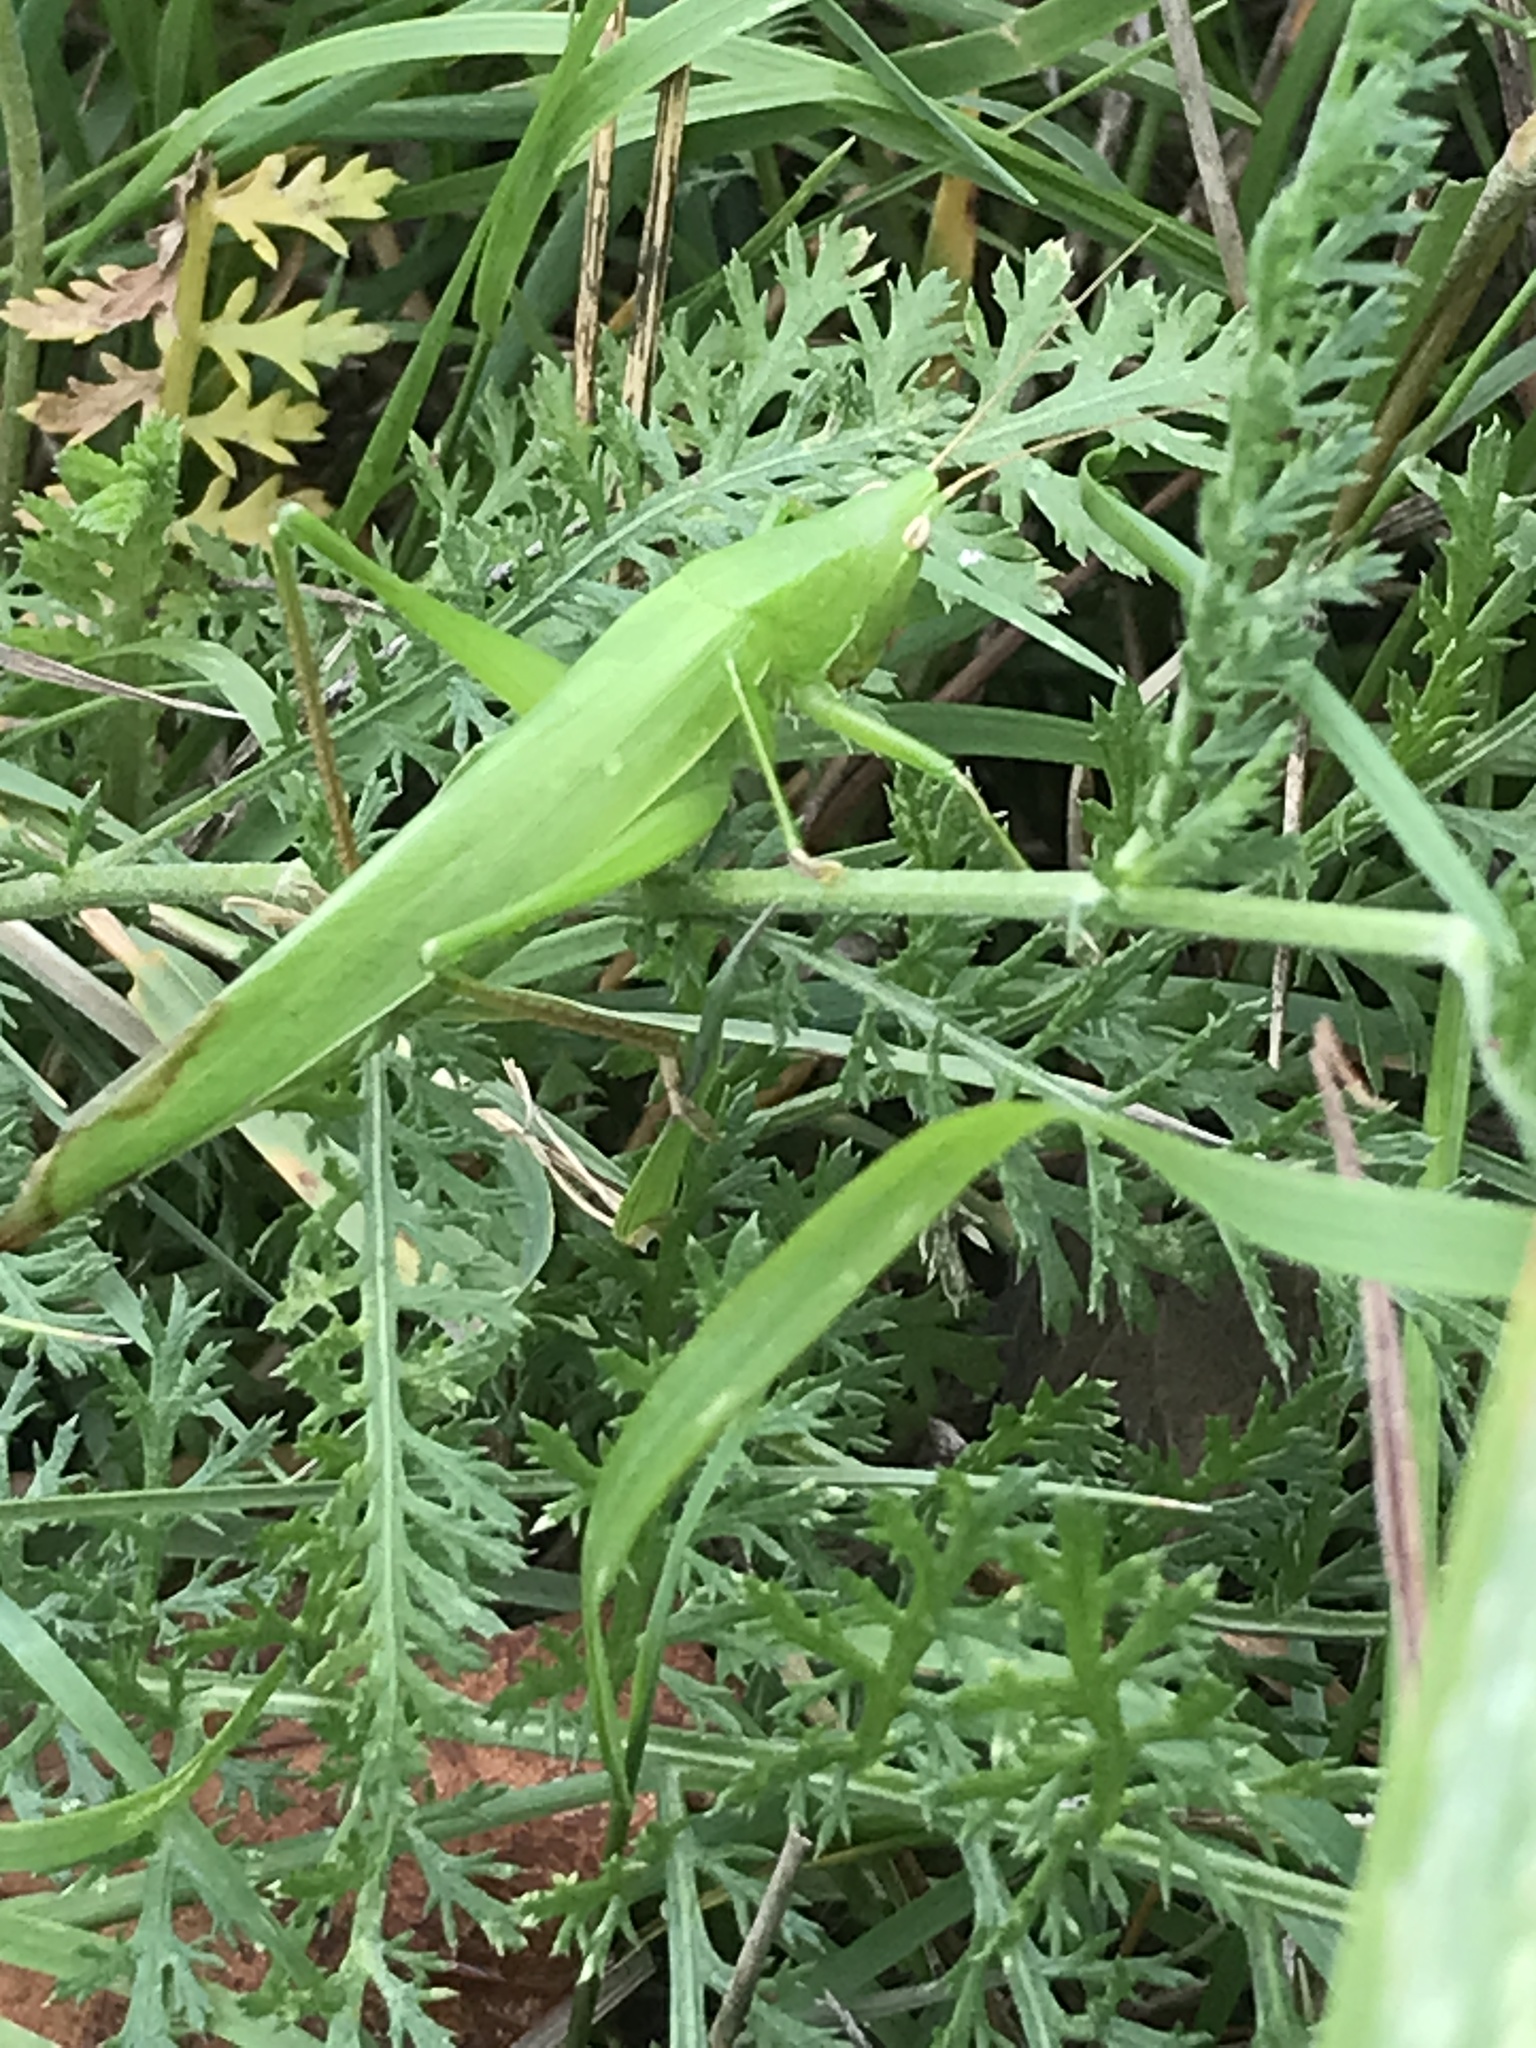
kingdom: Animalia
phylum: Arthropoda
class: Insecta
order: Orthoptera
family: Tettigoniidae
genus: Ruspolia
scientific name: Ruspolia nitidula
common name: Large conehead
